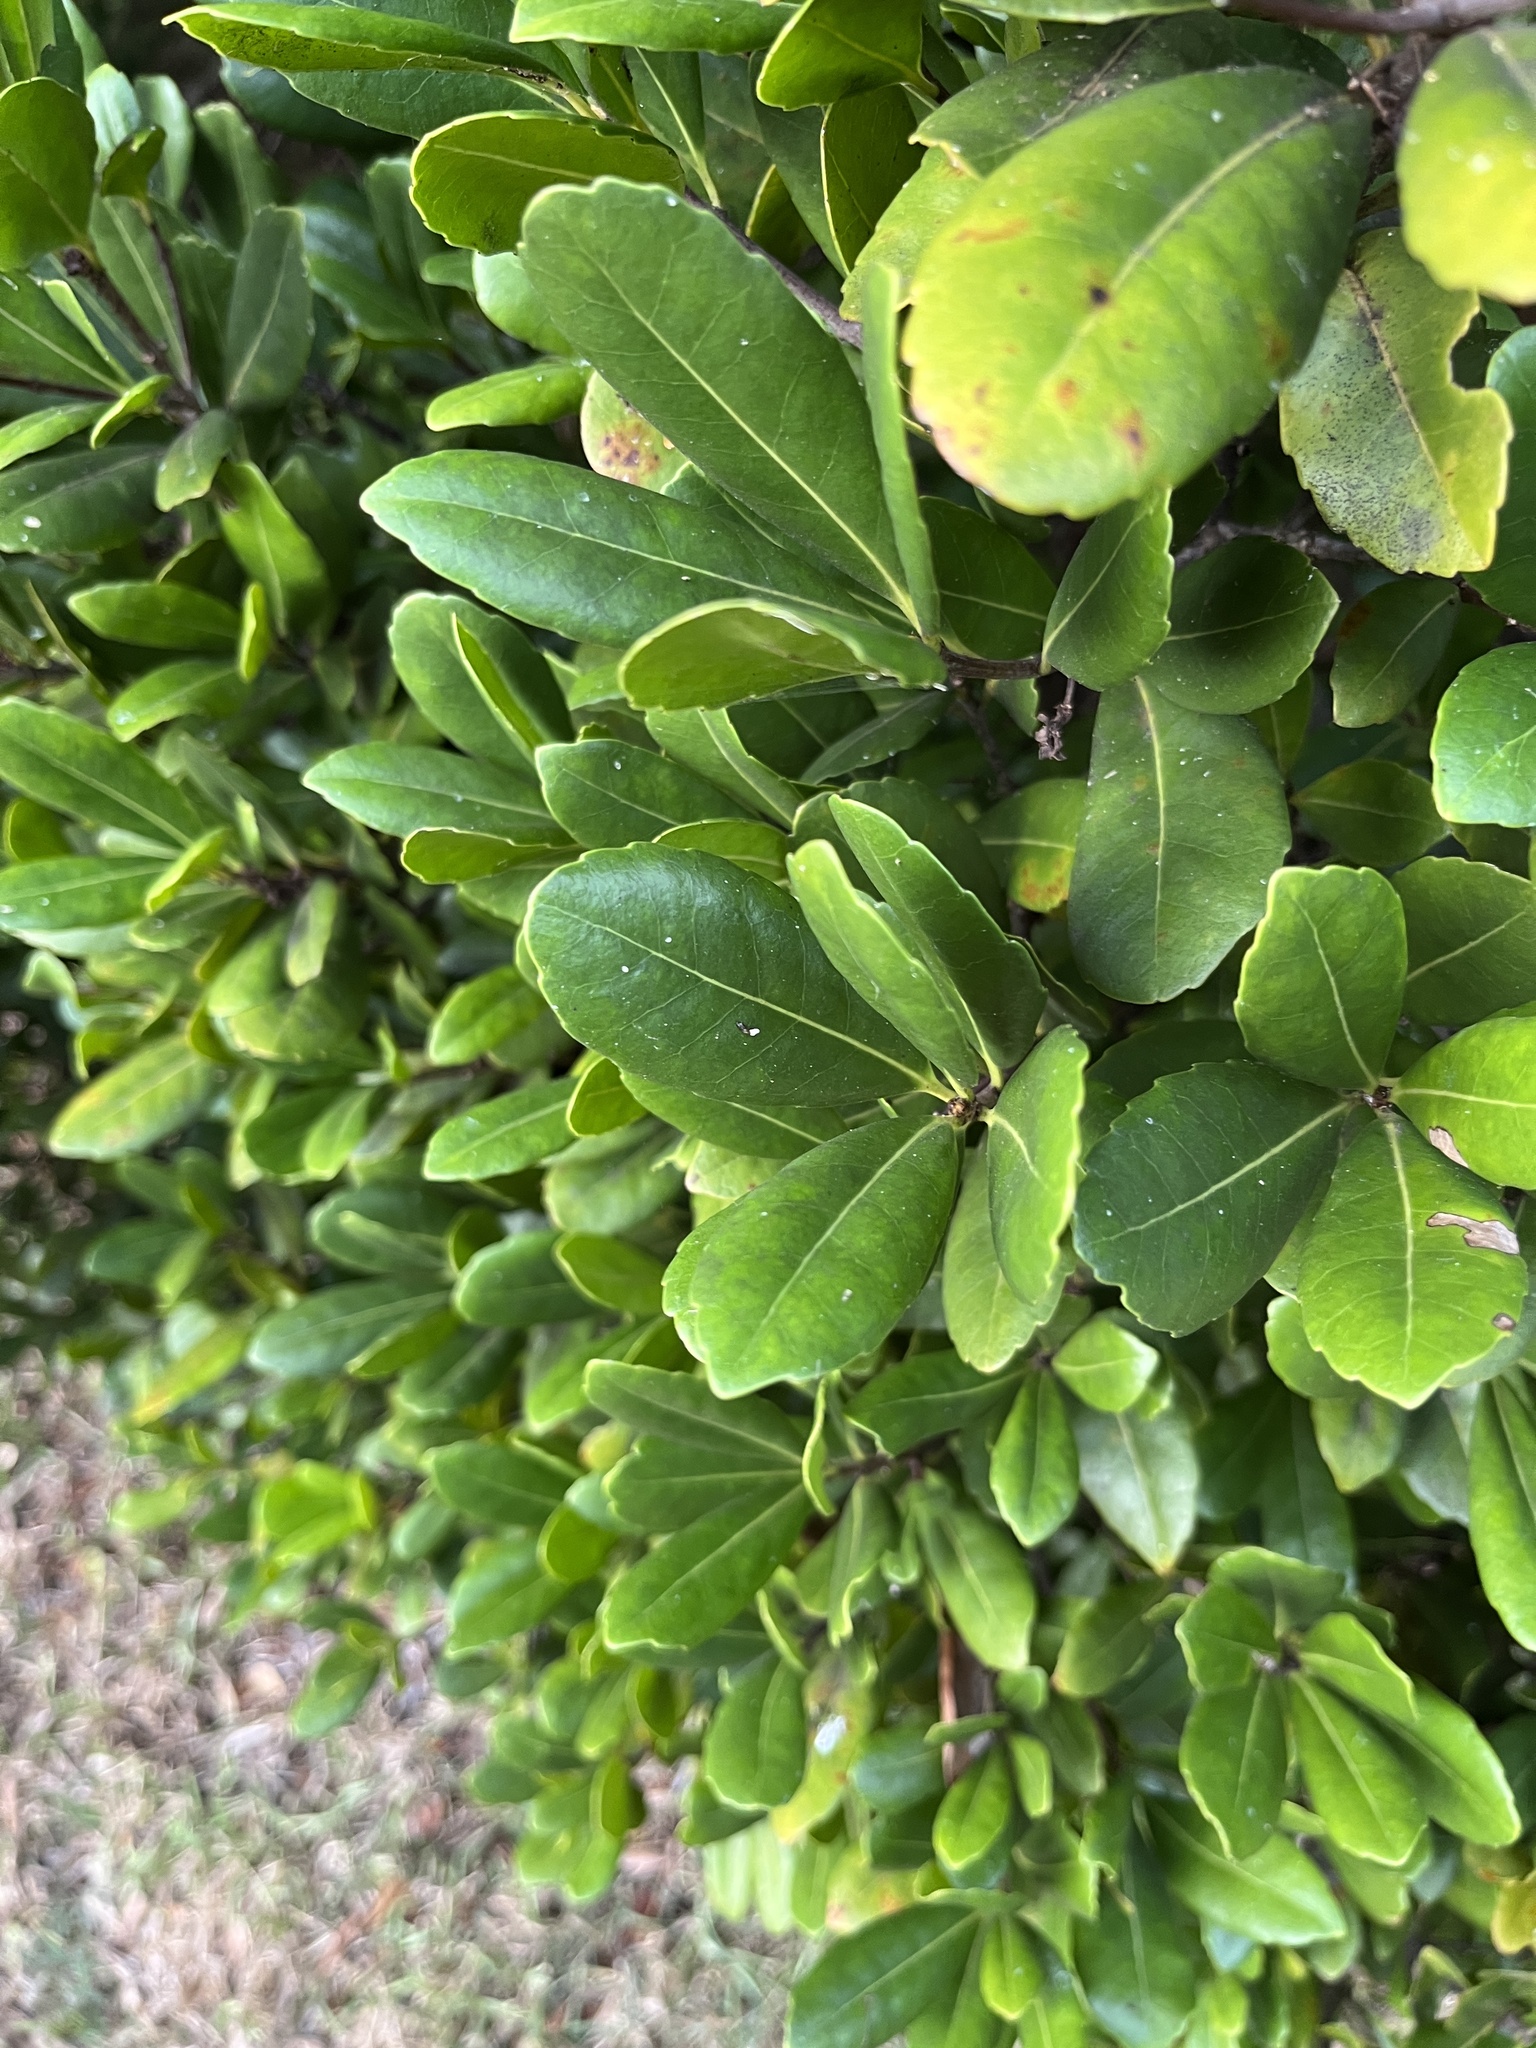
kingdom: Plantae
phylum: Tracheophyta
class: Magnoliopsida
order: Celastrales
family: Celastraceae
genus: Elaeodendron
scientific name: Elaeodendron laneanum
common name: Bermuda olivewood
